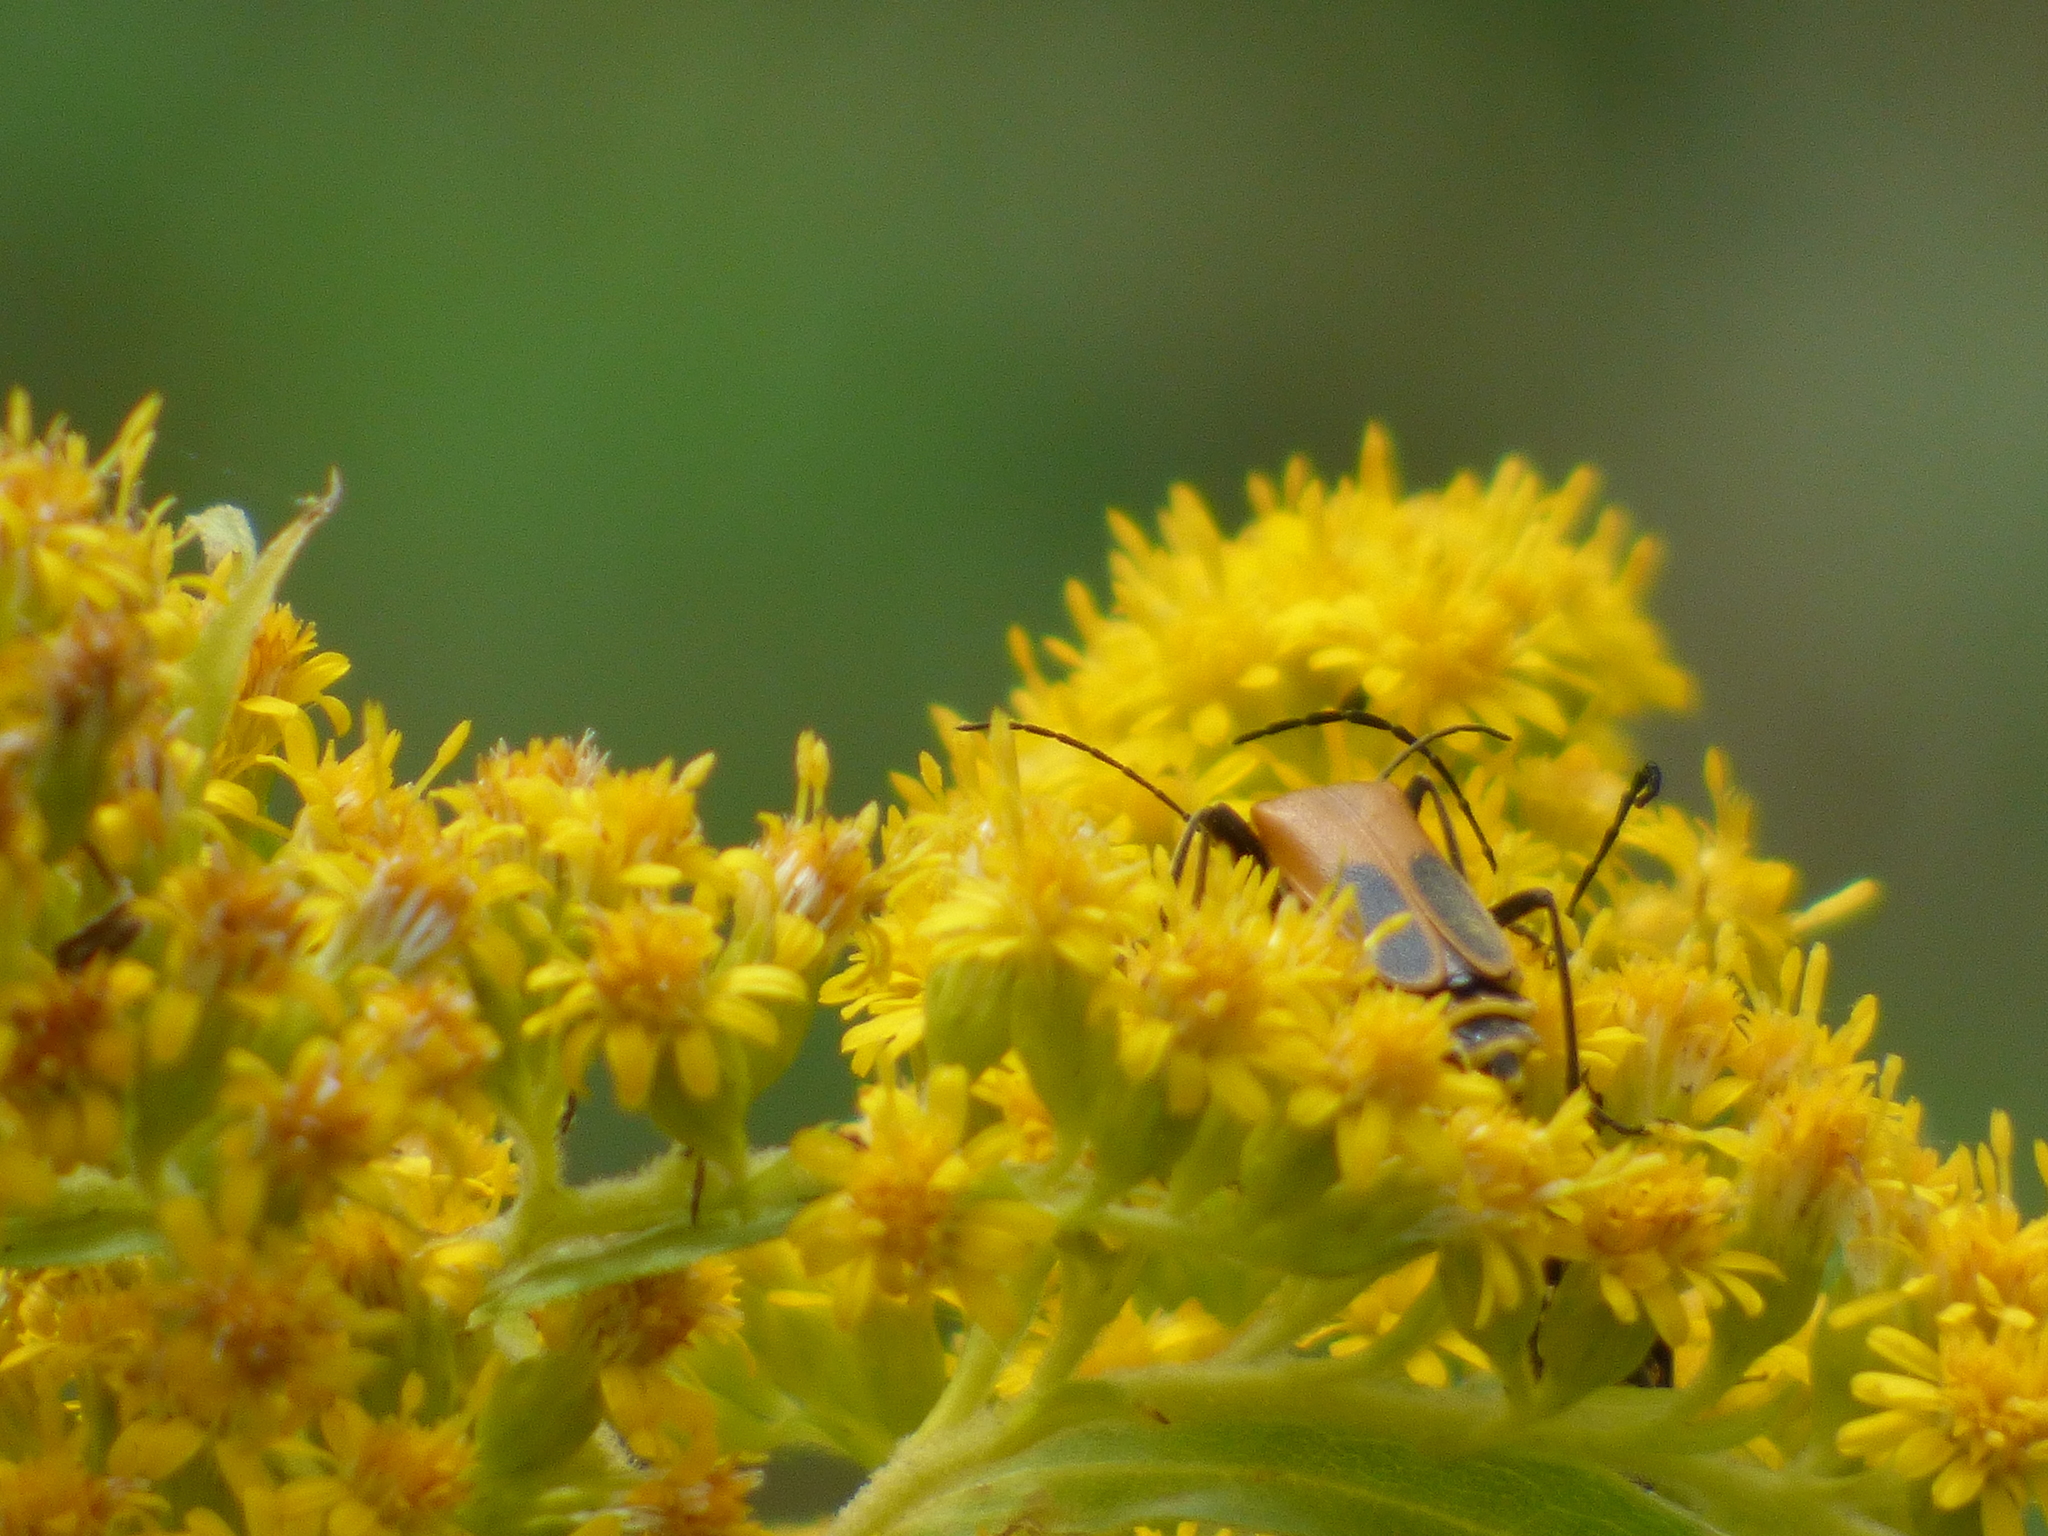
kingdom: Animalia
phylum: Arthropoda
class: Insecta
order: Coleoptera
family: Cantharidae
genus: Chauliognathus
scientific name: Chauliognathus pensylvanicus
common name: Goldenrod soldier beetle
